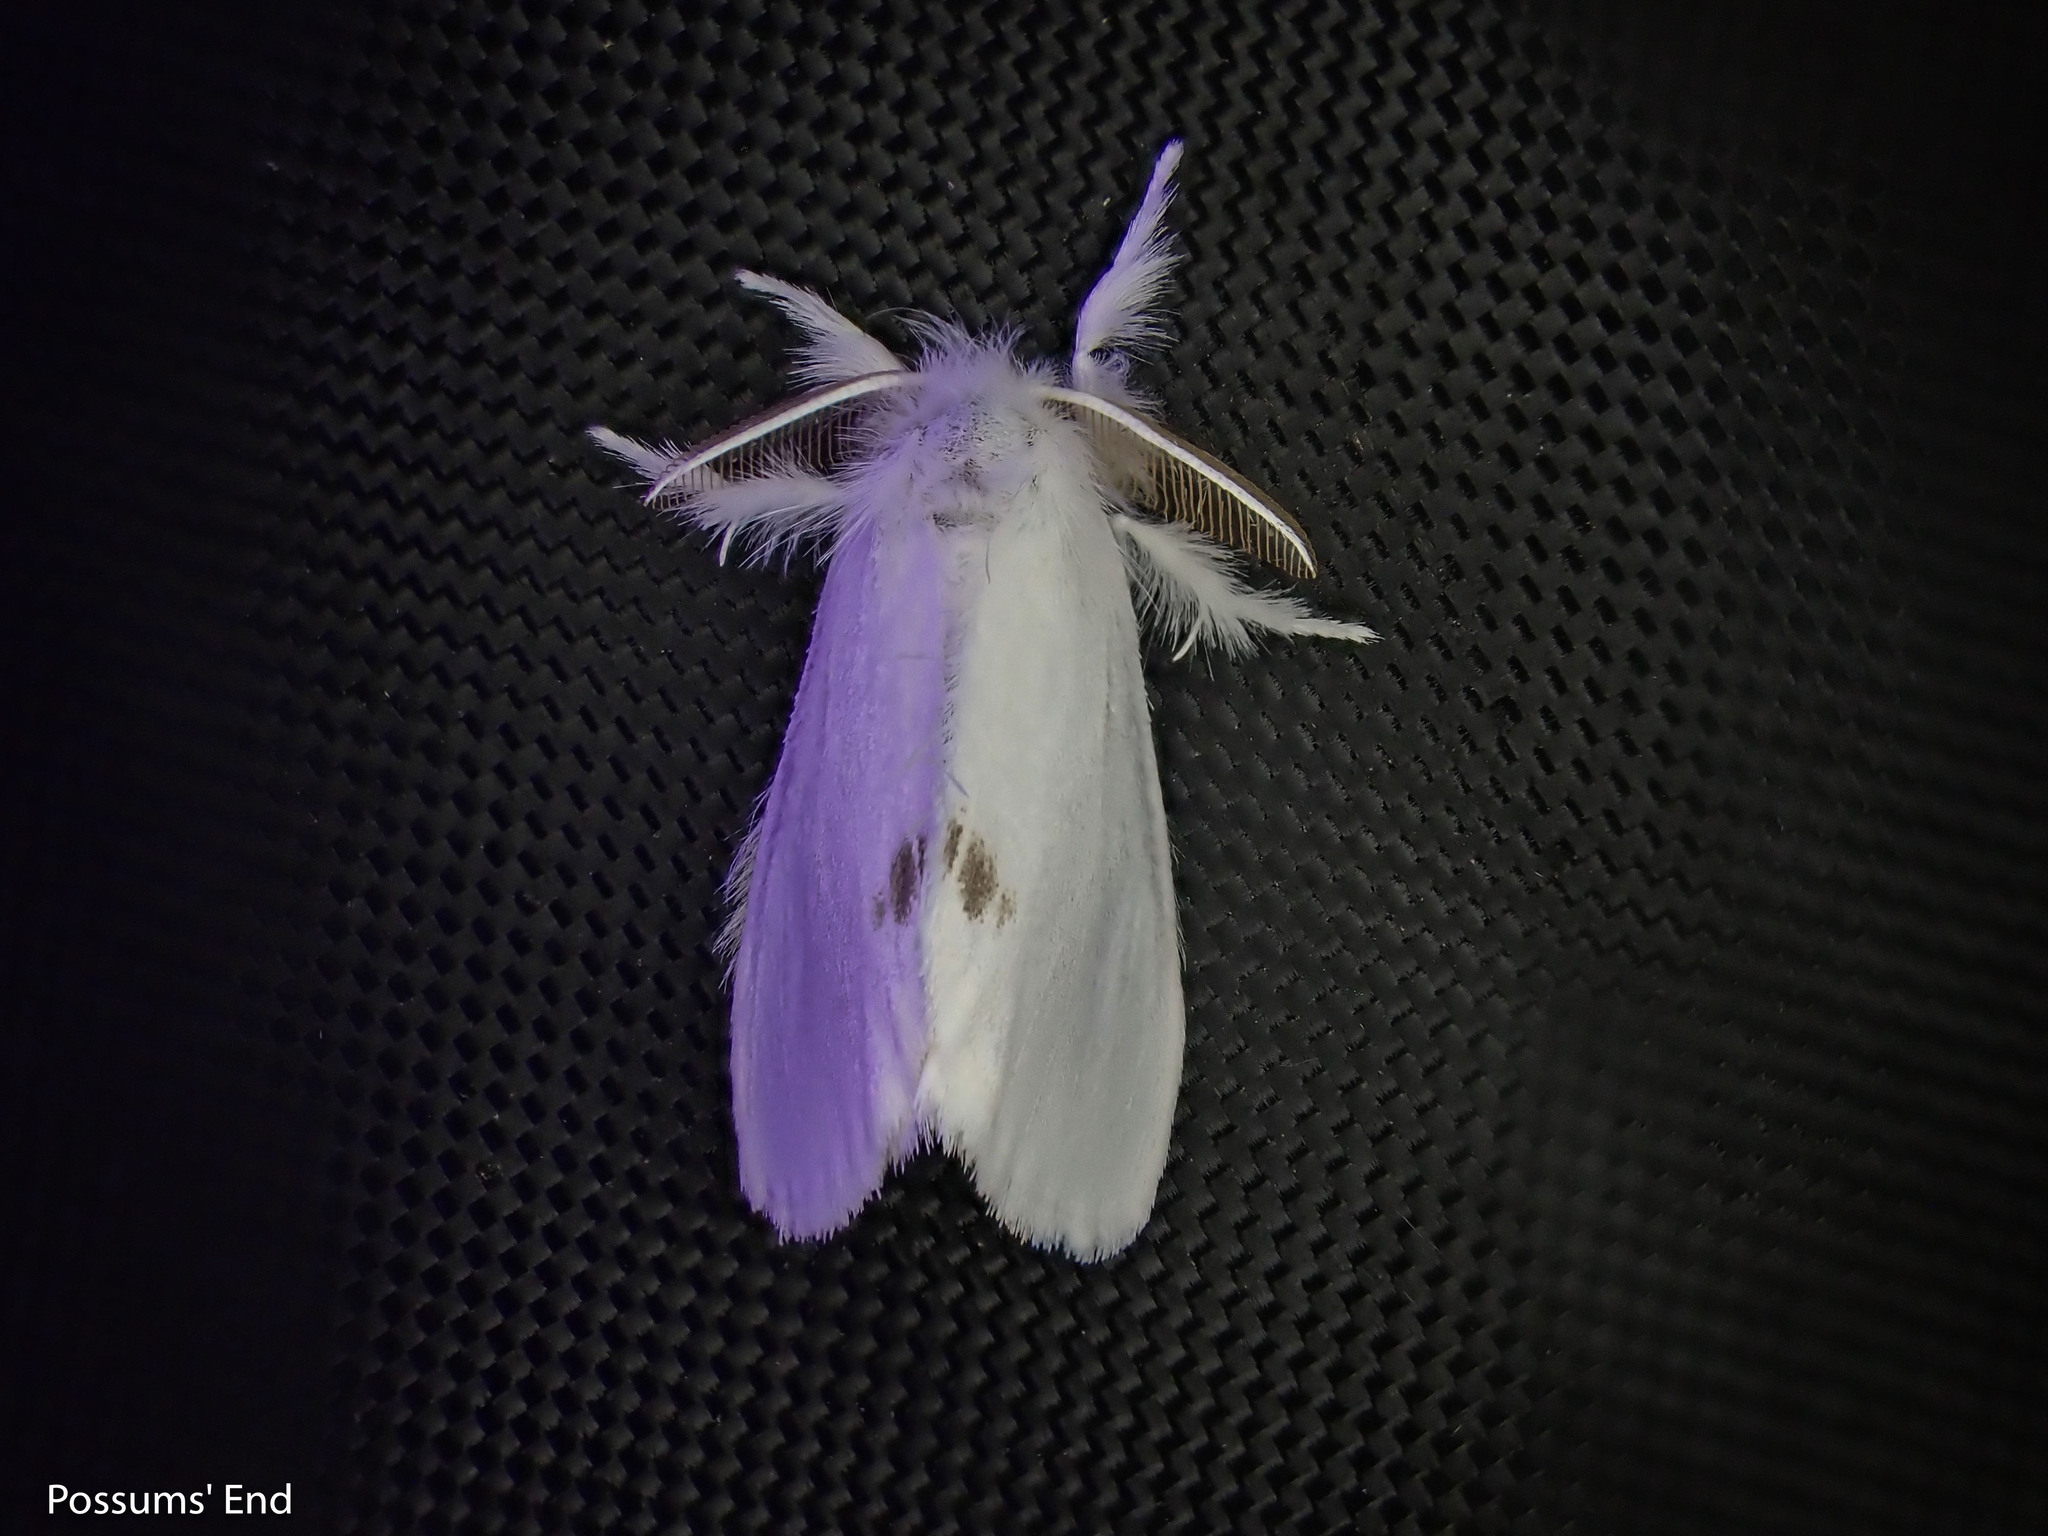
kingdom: Animalia
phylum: Arthropoda
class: Insecta
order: Lepidoptera
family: Erebidae
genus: Sphrageidus
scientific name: Sphrageidus similis
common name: Yellow-tail
